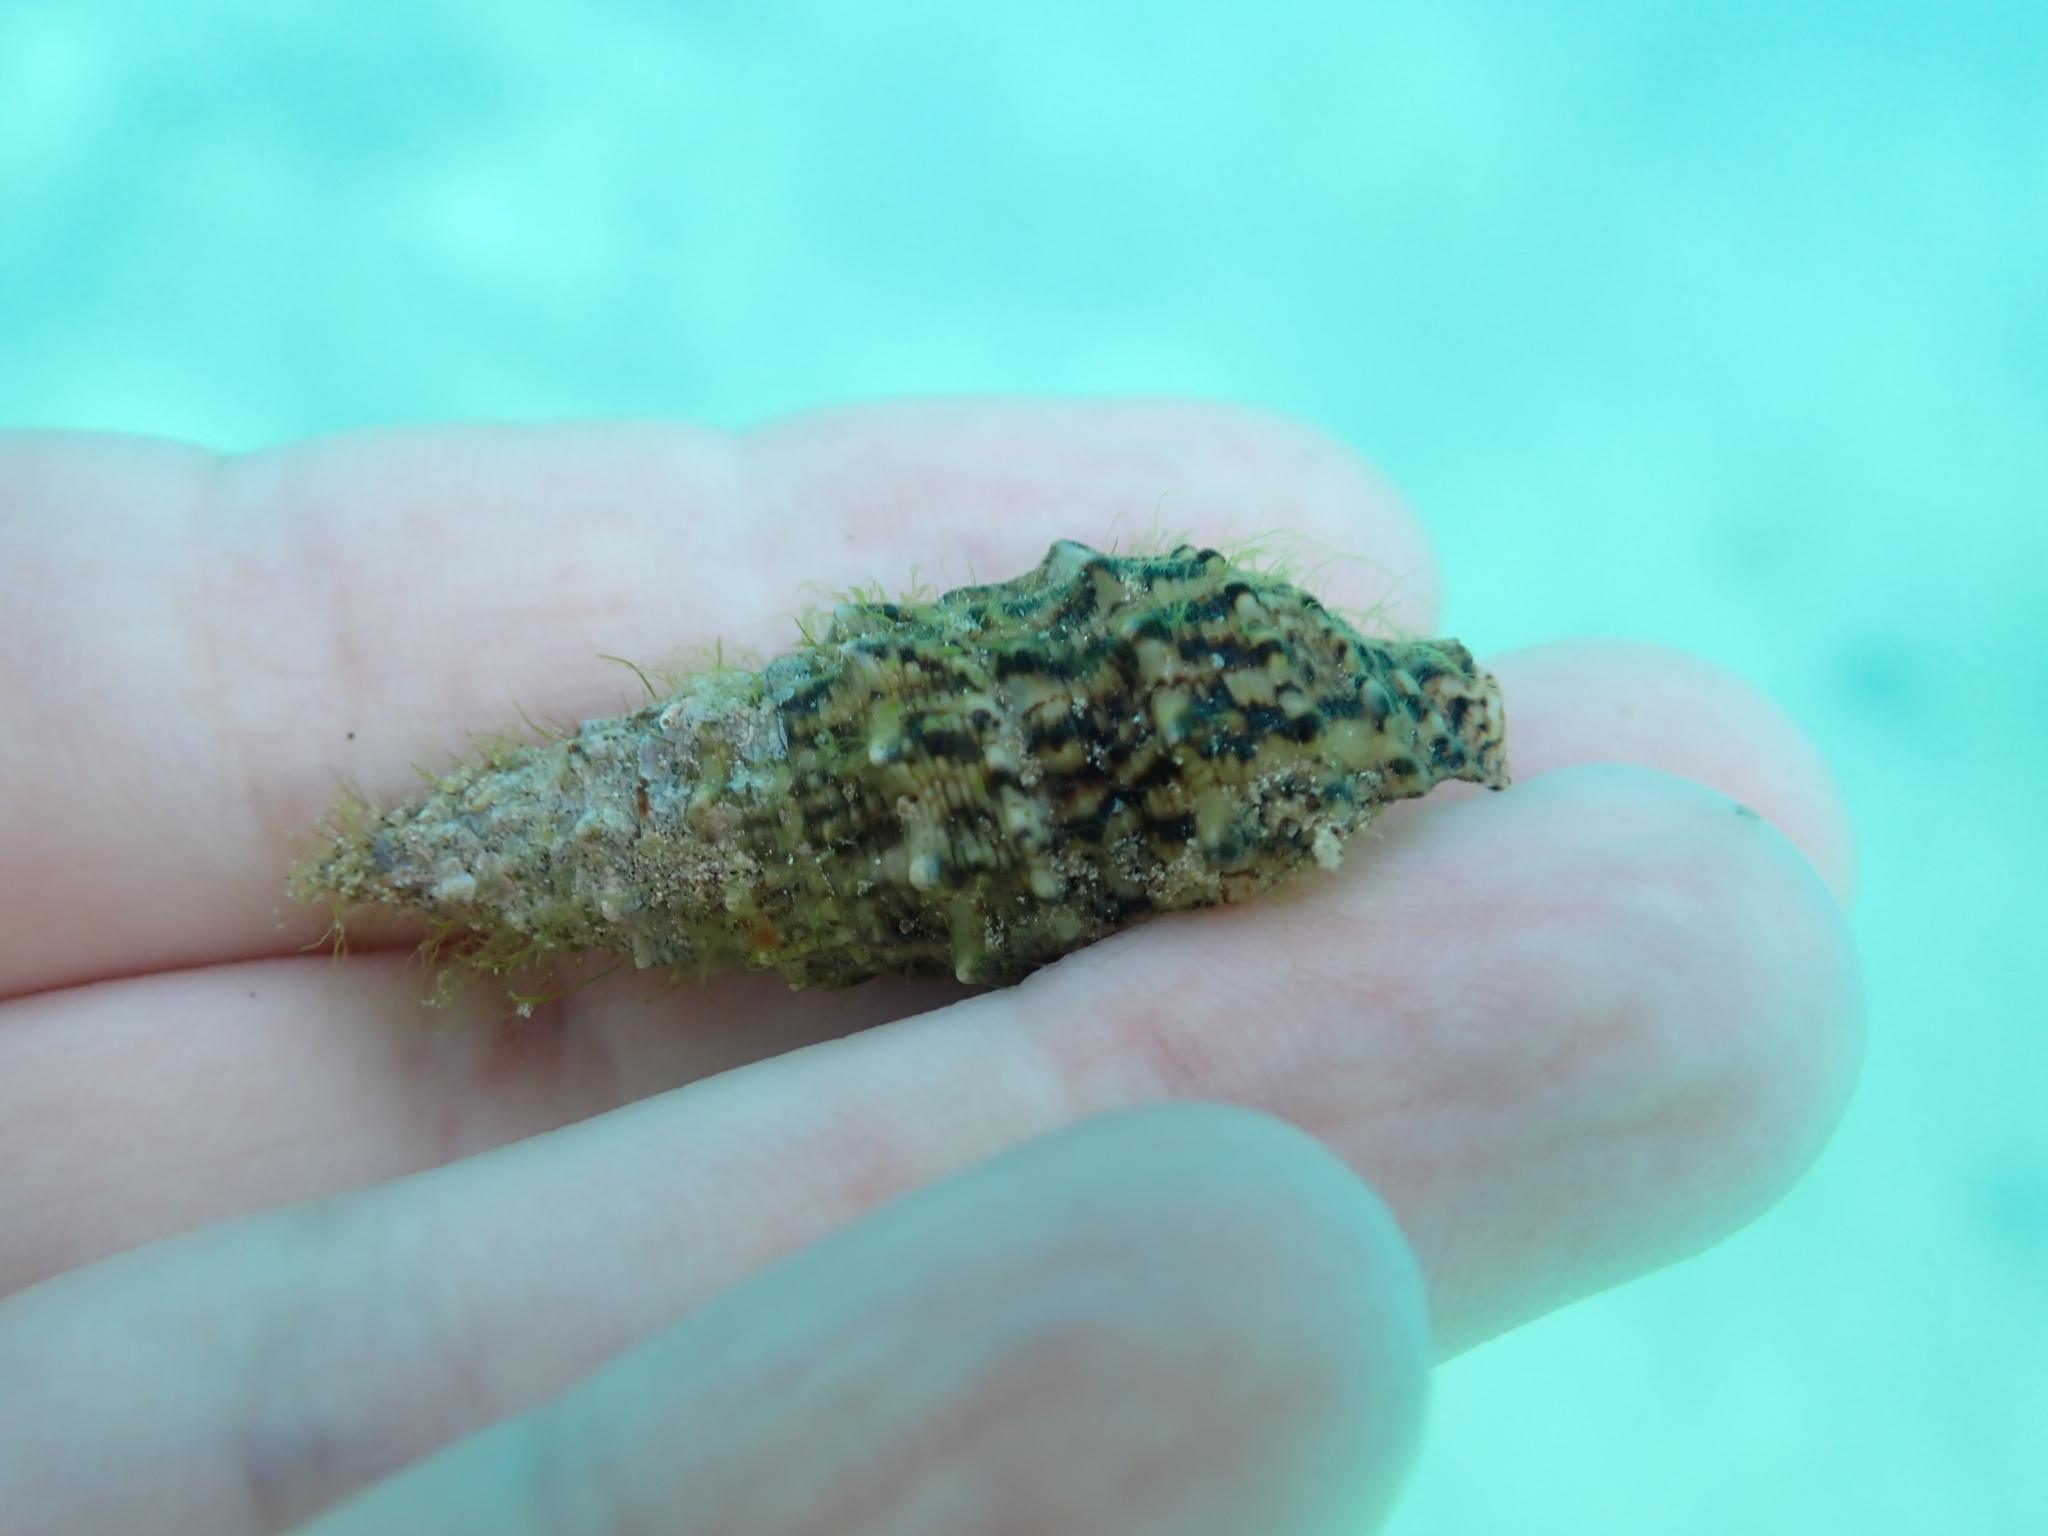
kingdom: Animalia
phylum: Mollusca
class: Gastropoda
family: Cerithiidae
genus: Cerithium
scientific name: Cerithium vulgatum
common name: European cerith
